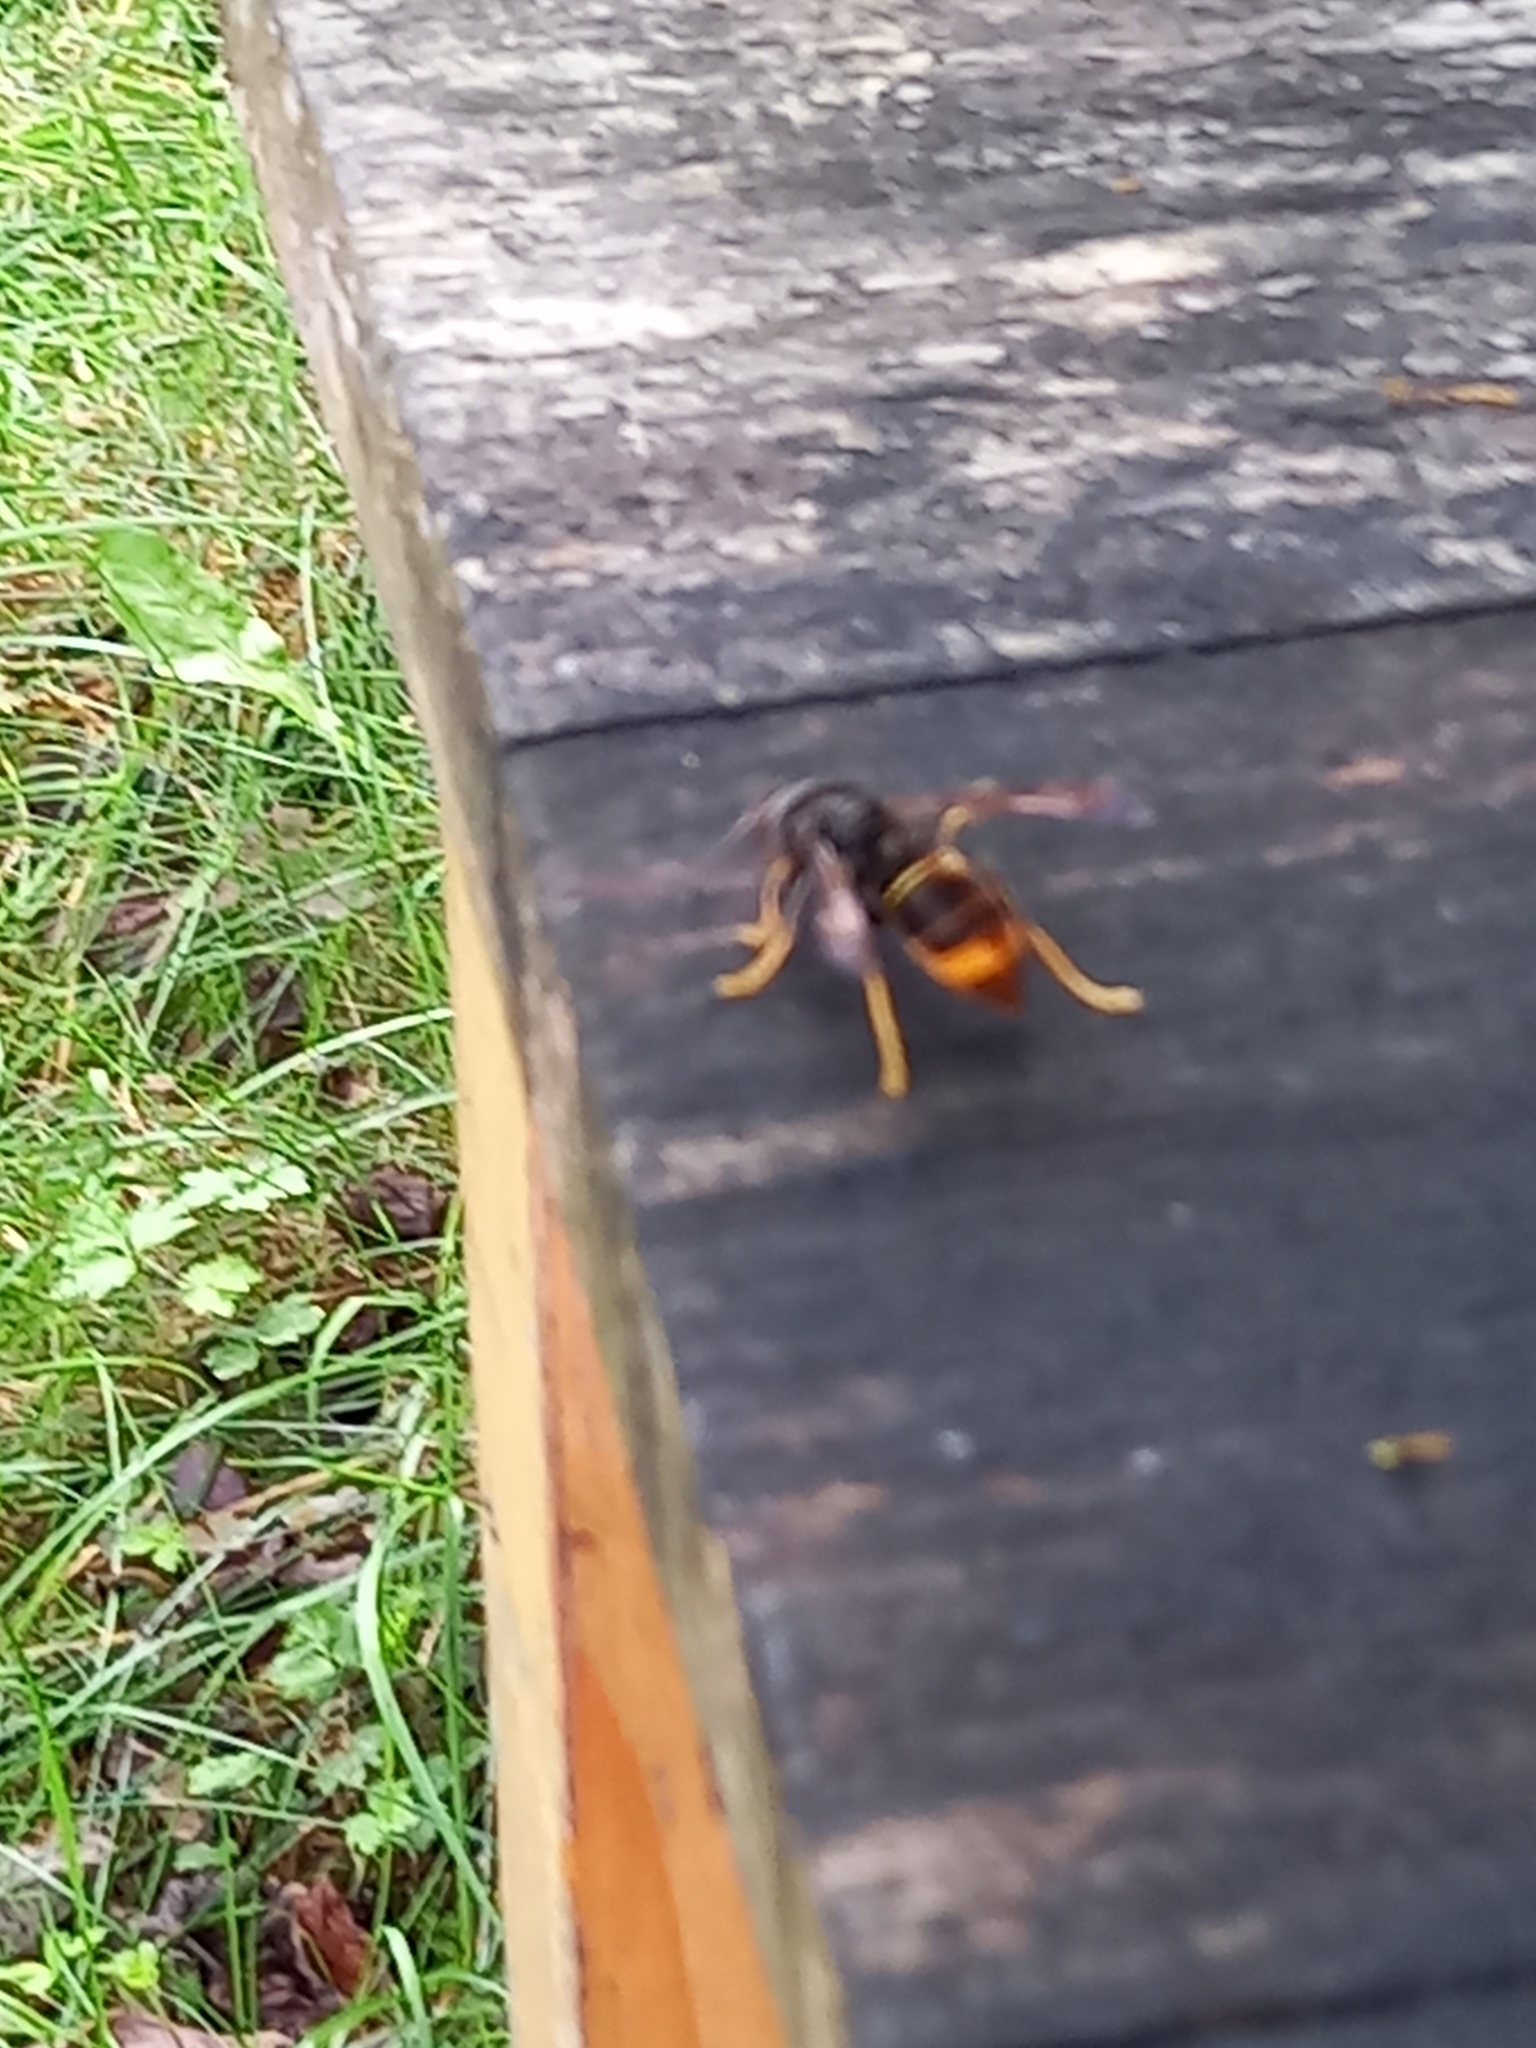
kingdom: Animalia
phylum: Arthropoda
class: Insecta
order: Hymenoptera
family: Vespidae
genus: Vespa
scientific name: Vespa velutina
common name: Asian hornet
